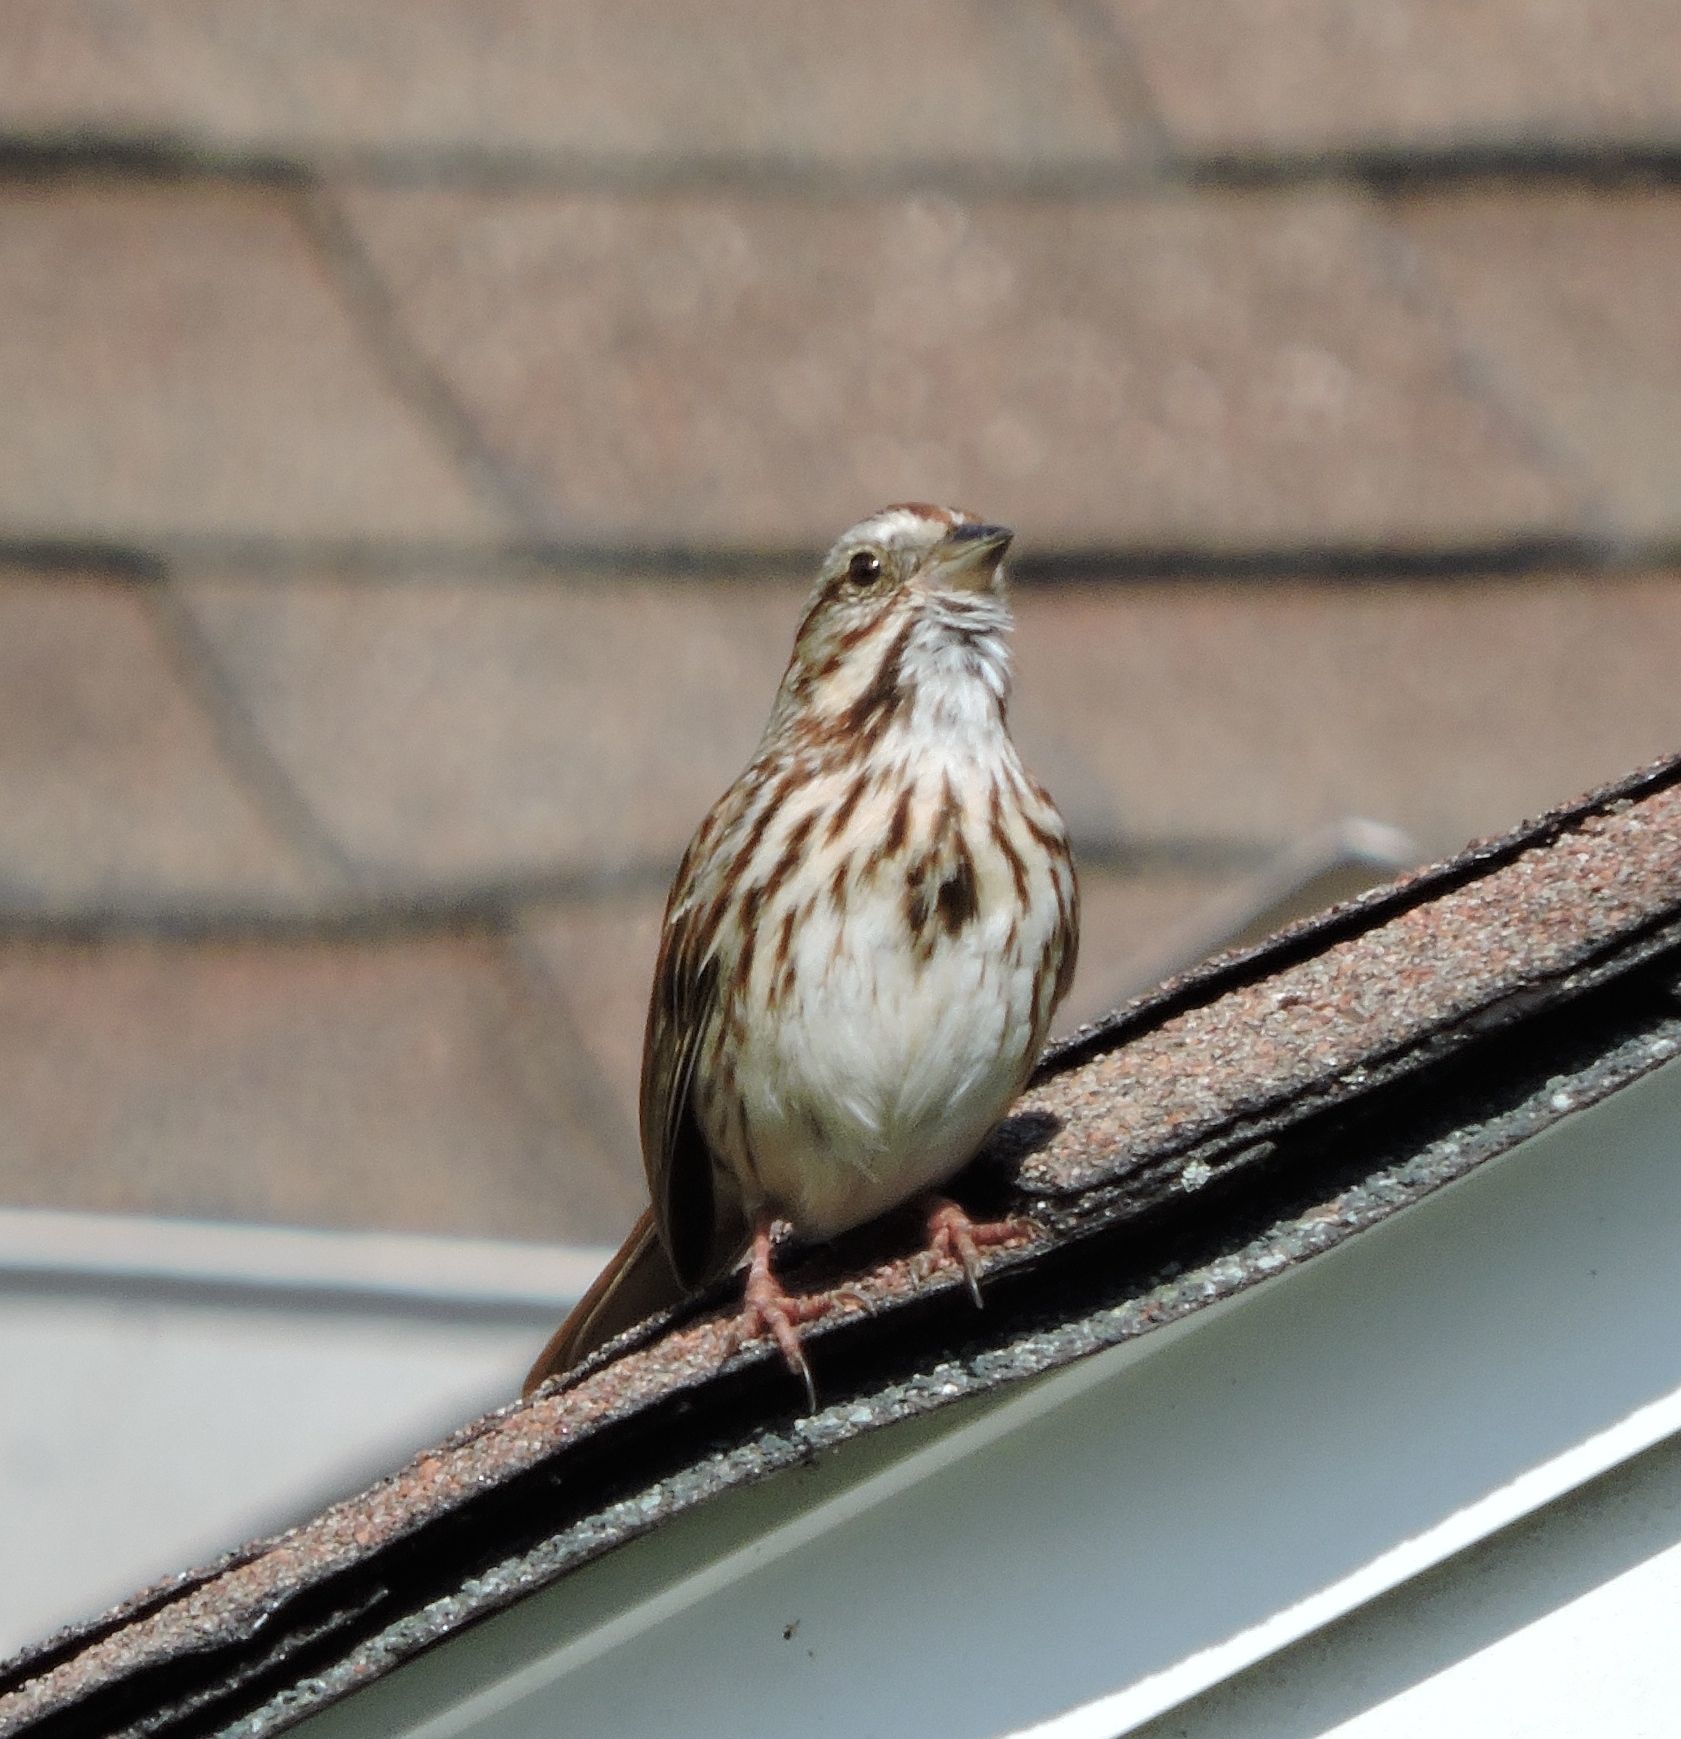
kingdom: Animalia
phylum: Chordata
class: Aves
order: Passeriformes
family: Passerellidae
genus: Melospiza
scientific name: Melospiza melodia
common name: Song sparrow
